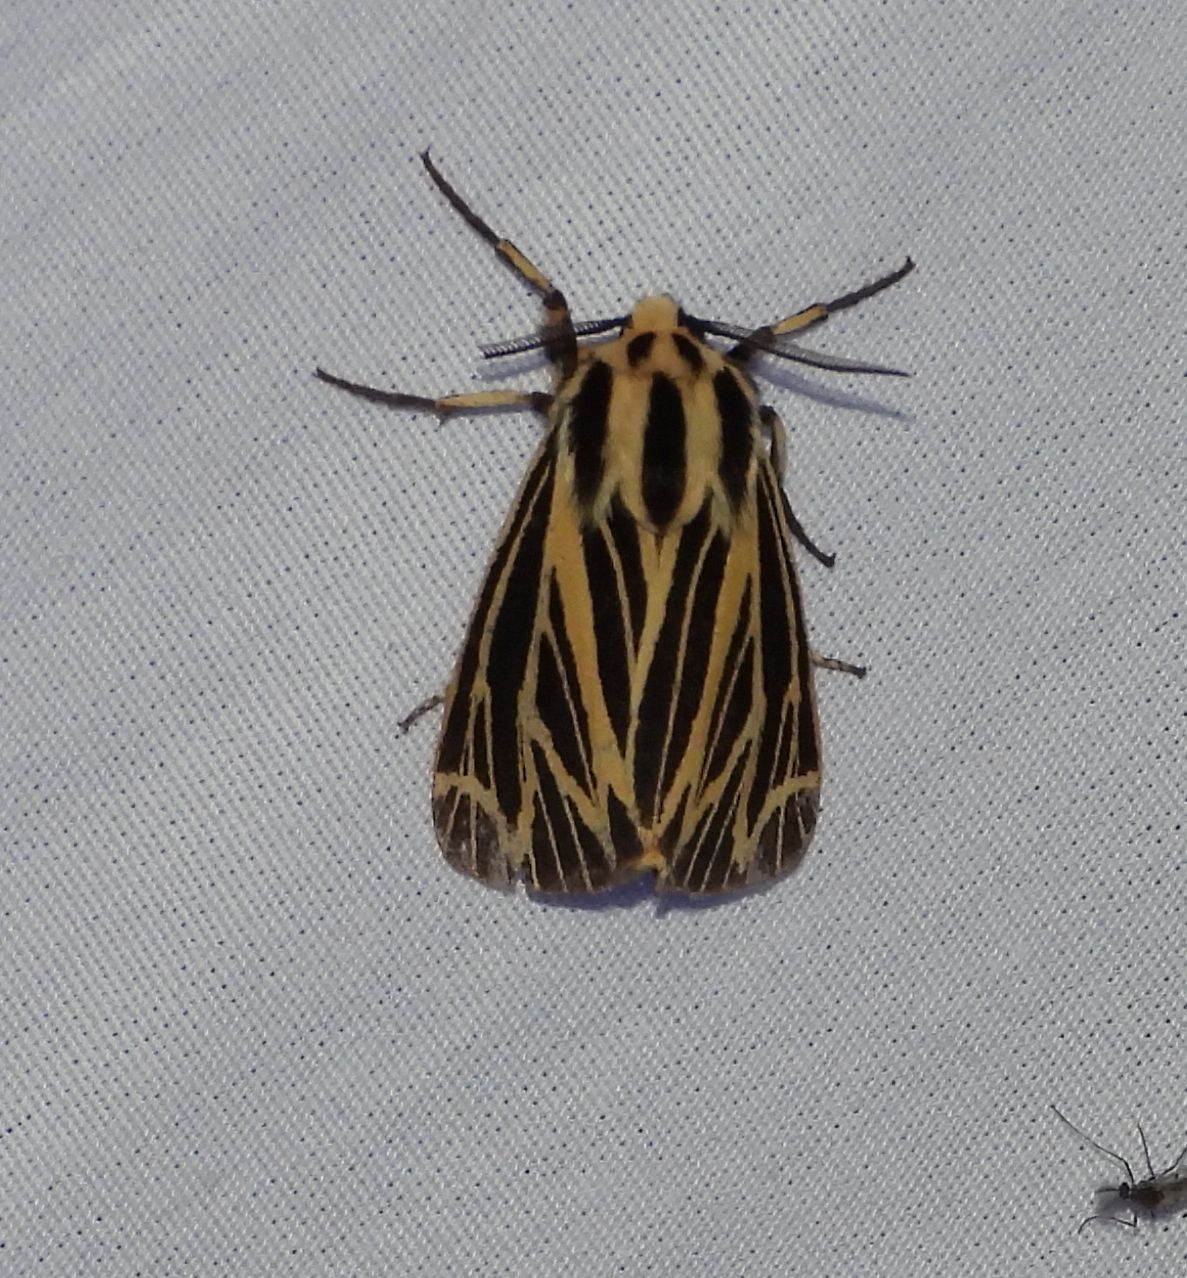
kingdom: Animalia
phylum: Arthropoda
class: Insecta
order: Lepidoptera
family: Erebidae
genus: Grammia
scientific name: Grammia virguncula
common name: Little tiger moth
